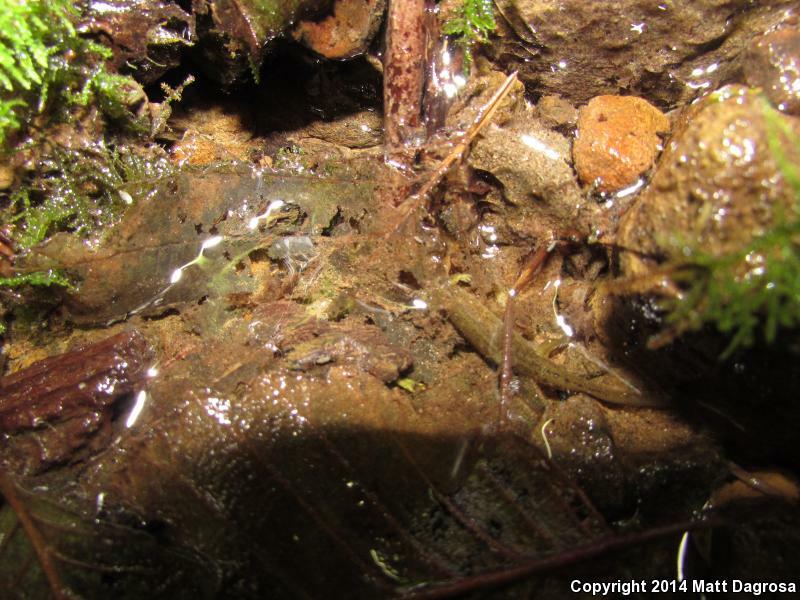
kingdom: Animalia
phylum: Chordata
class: Amphibia
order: Caudata
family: Rhyacotritonidae
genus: Rhyacotriton
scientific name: Rhyacotriton variegatus
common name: Southern torrent salamander
